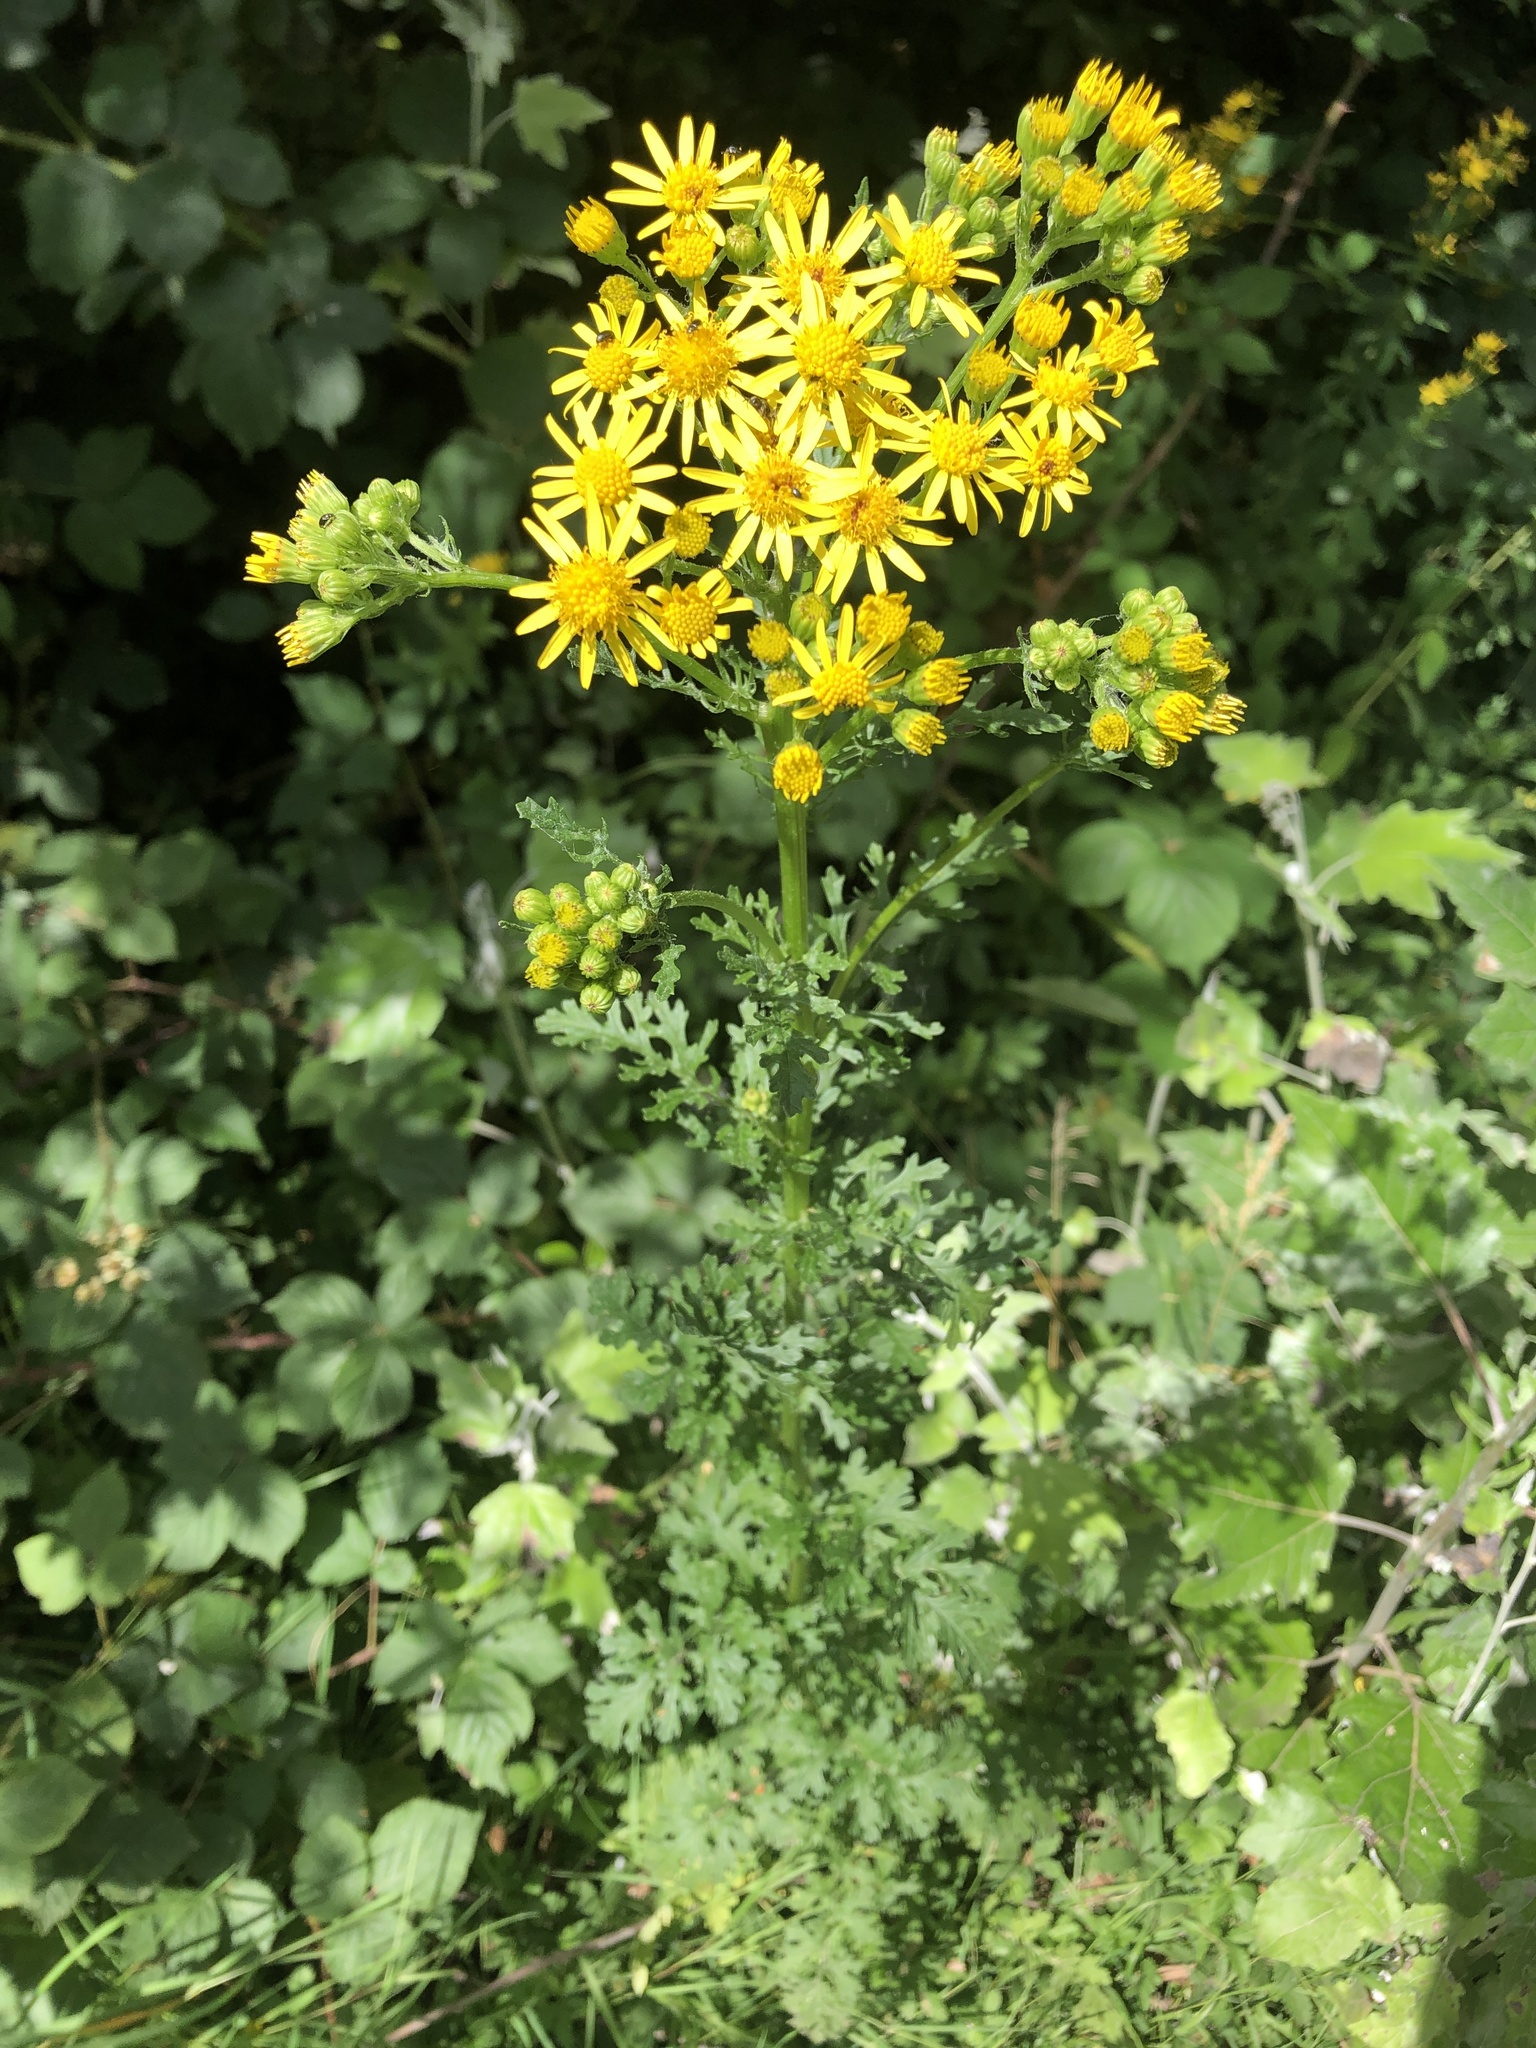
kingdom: Plantae
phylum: Tracheophyta
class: Magnoliopsida
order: Asterales
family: Asteraceae
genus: Jacobaea
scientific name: Jacobaea vulgaris
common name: Stinking willie
